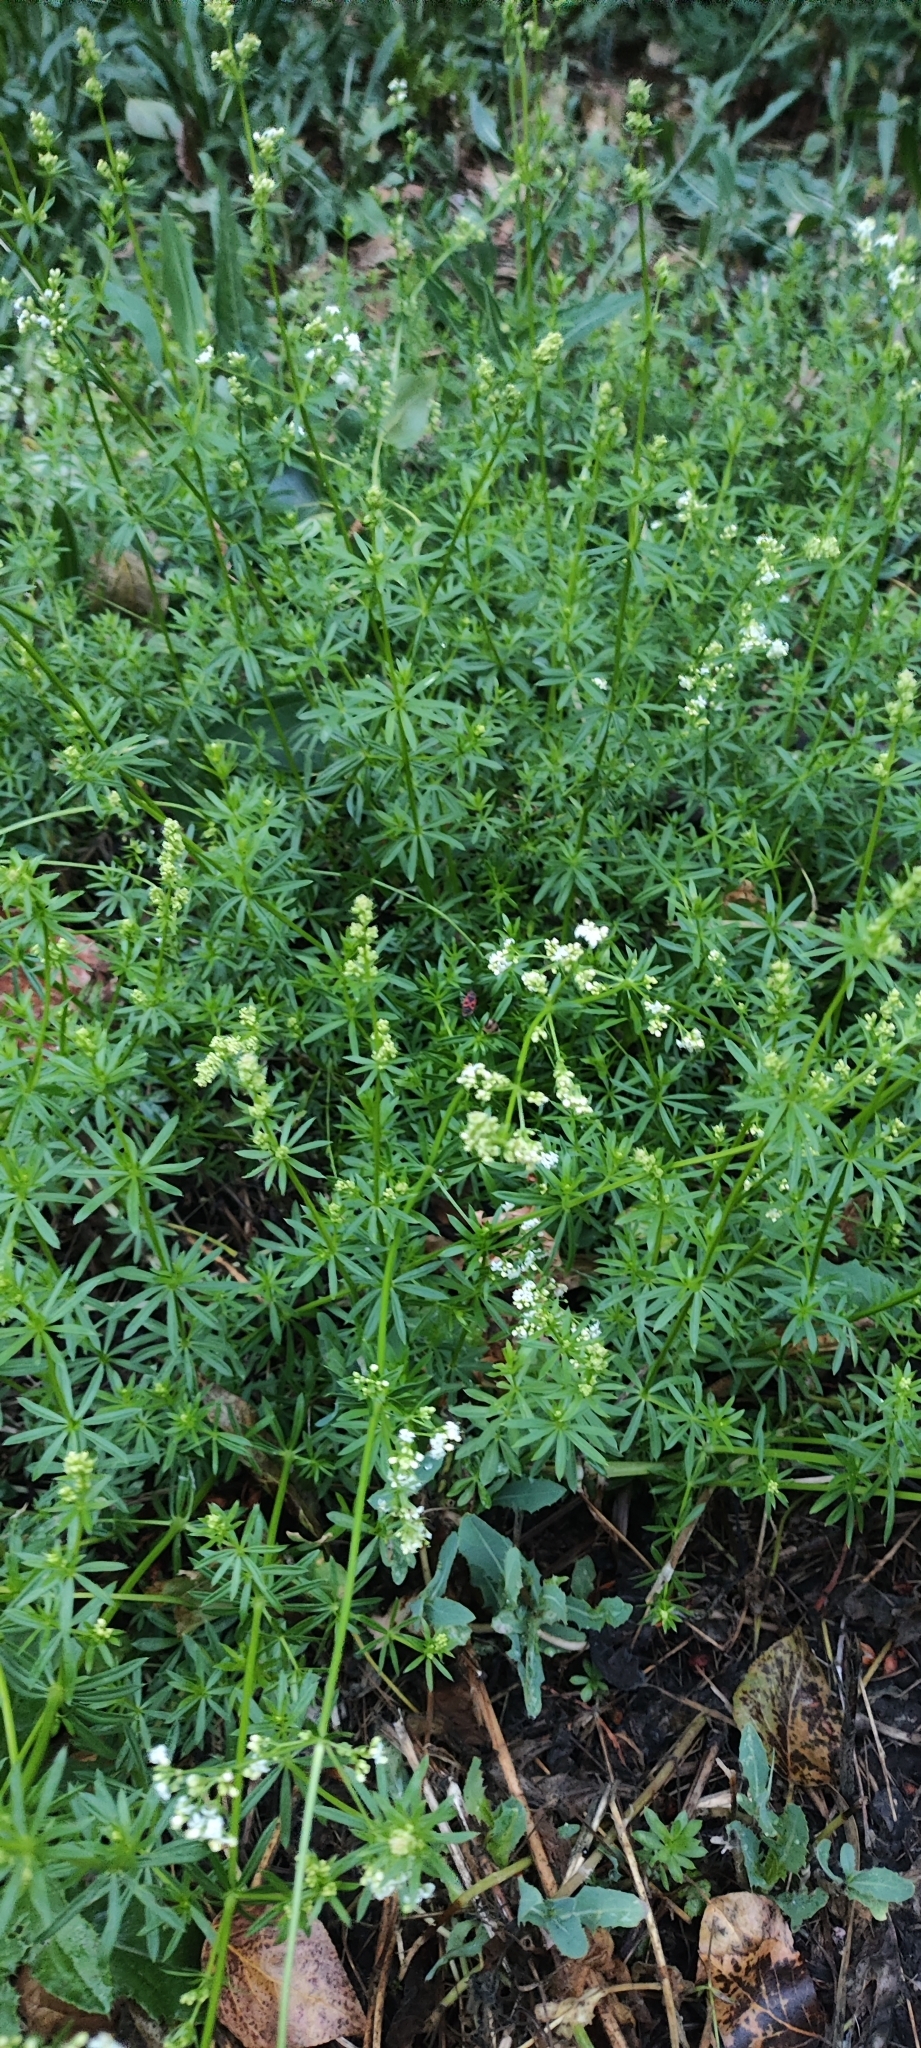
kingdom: Plantae
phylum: Tracheophyta
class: Magnoliopsida
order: Gentianales
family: Rubiaceae
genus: Galium
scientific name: Galium mollugo
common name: Hedge bedstraw
